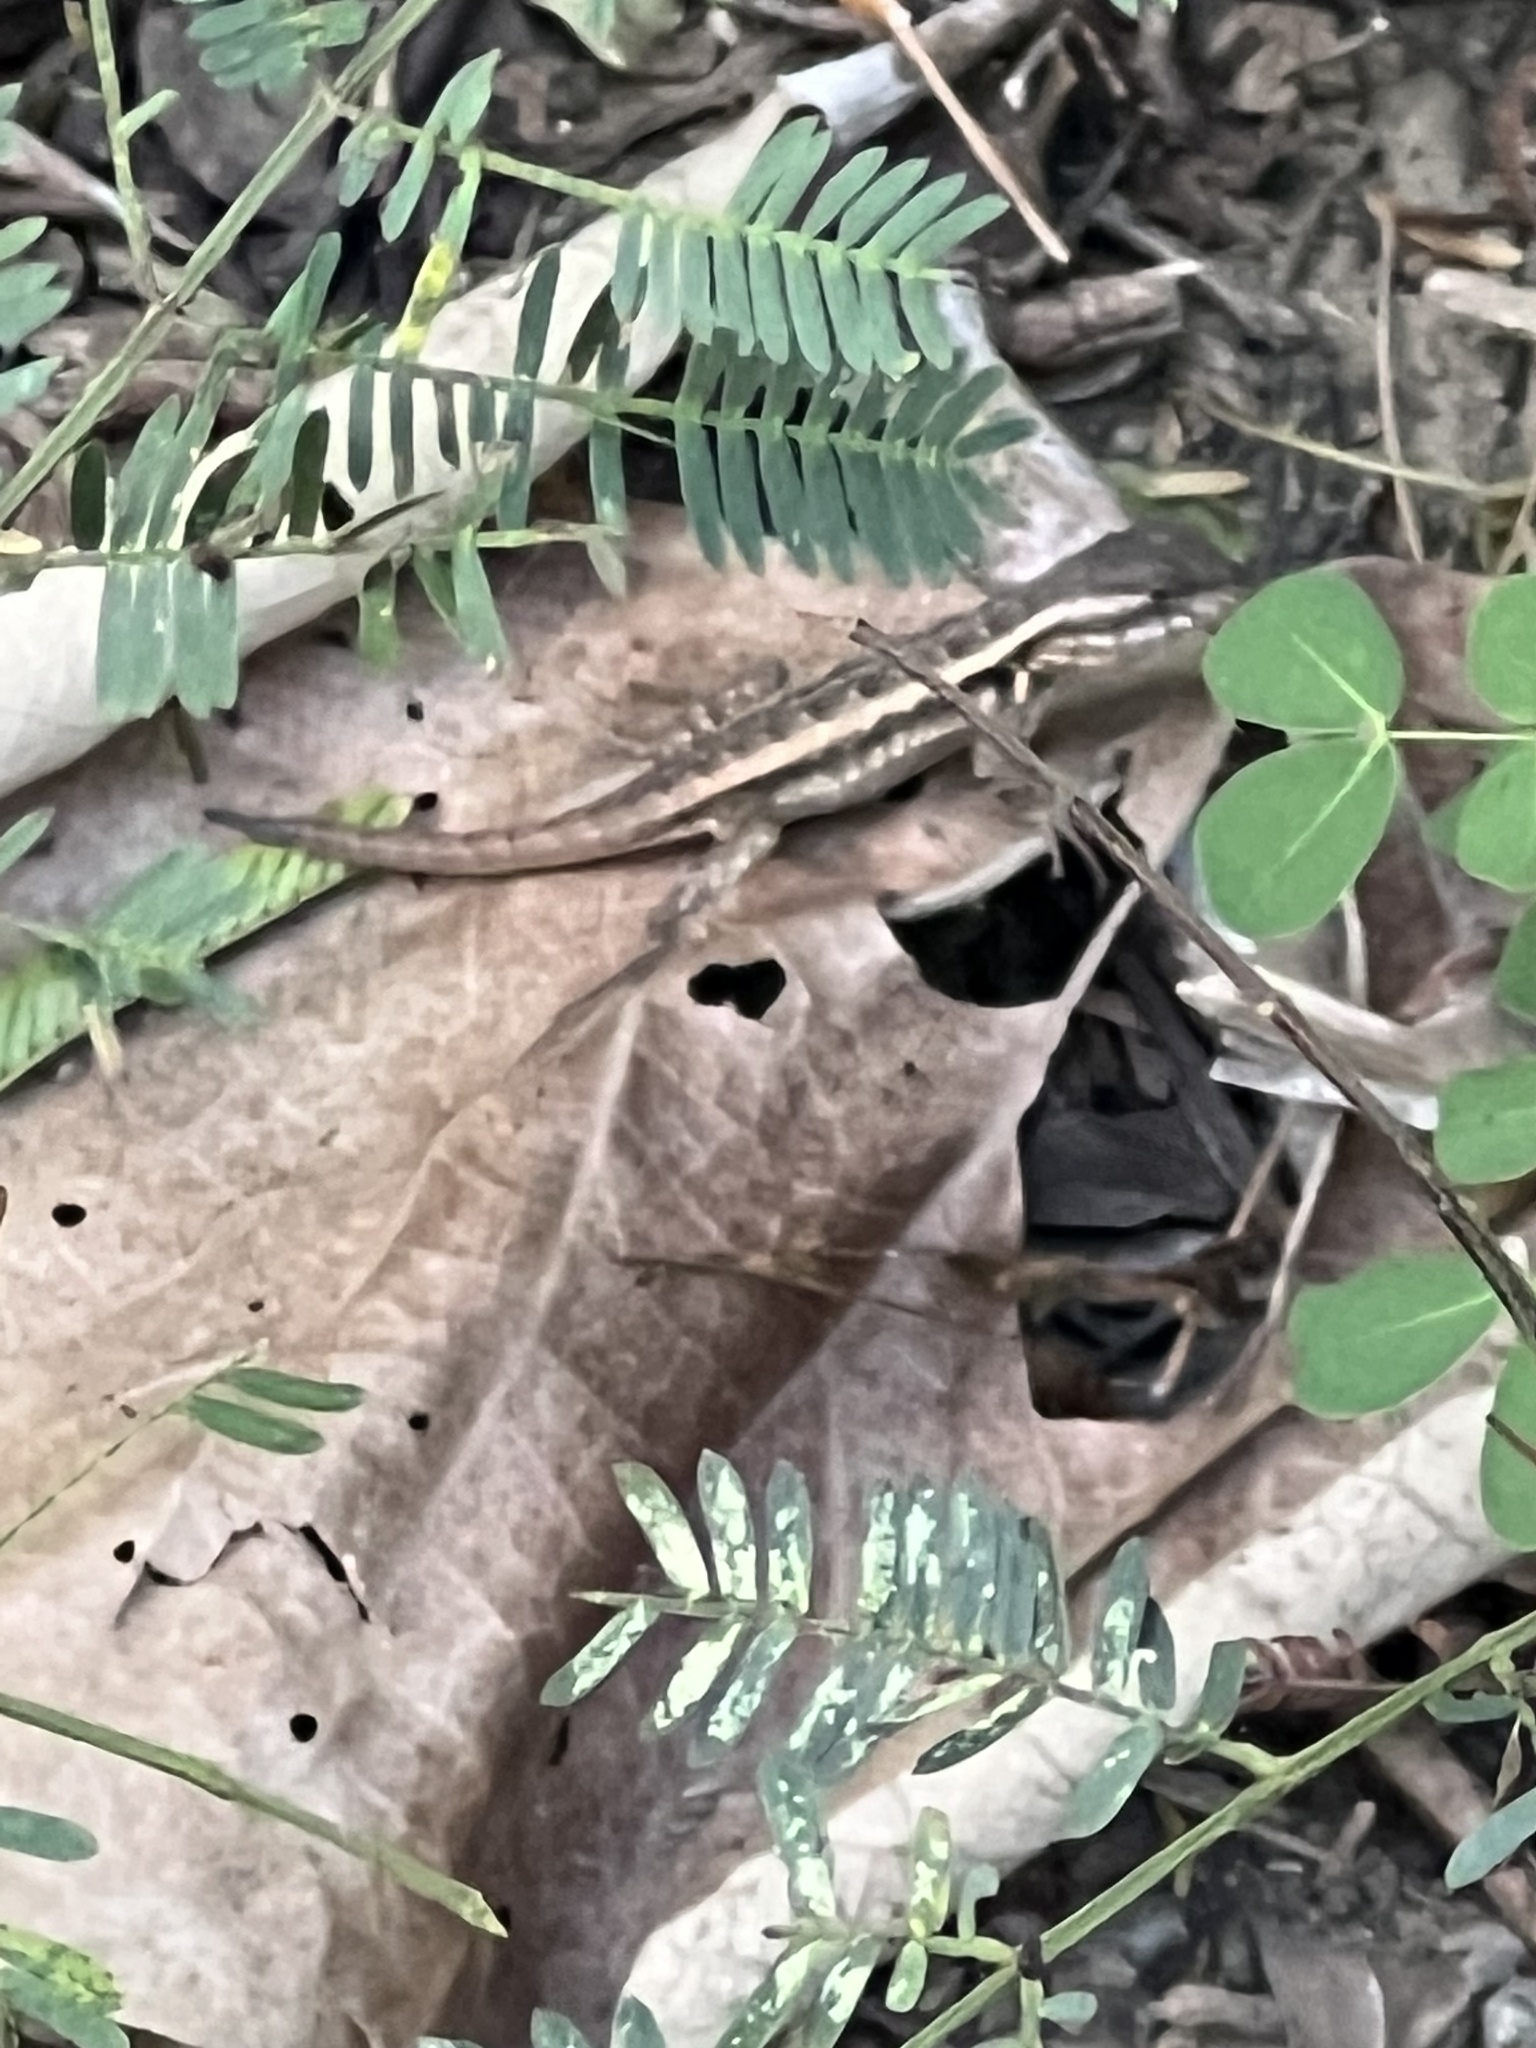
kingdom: Animalia
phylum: Chordata
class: Squamata
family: Phrynosomatidae
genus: Sceloporus
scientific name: Sceloporus variabilis
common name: Rosebelly lizard
